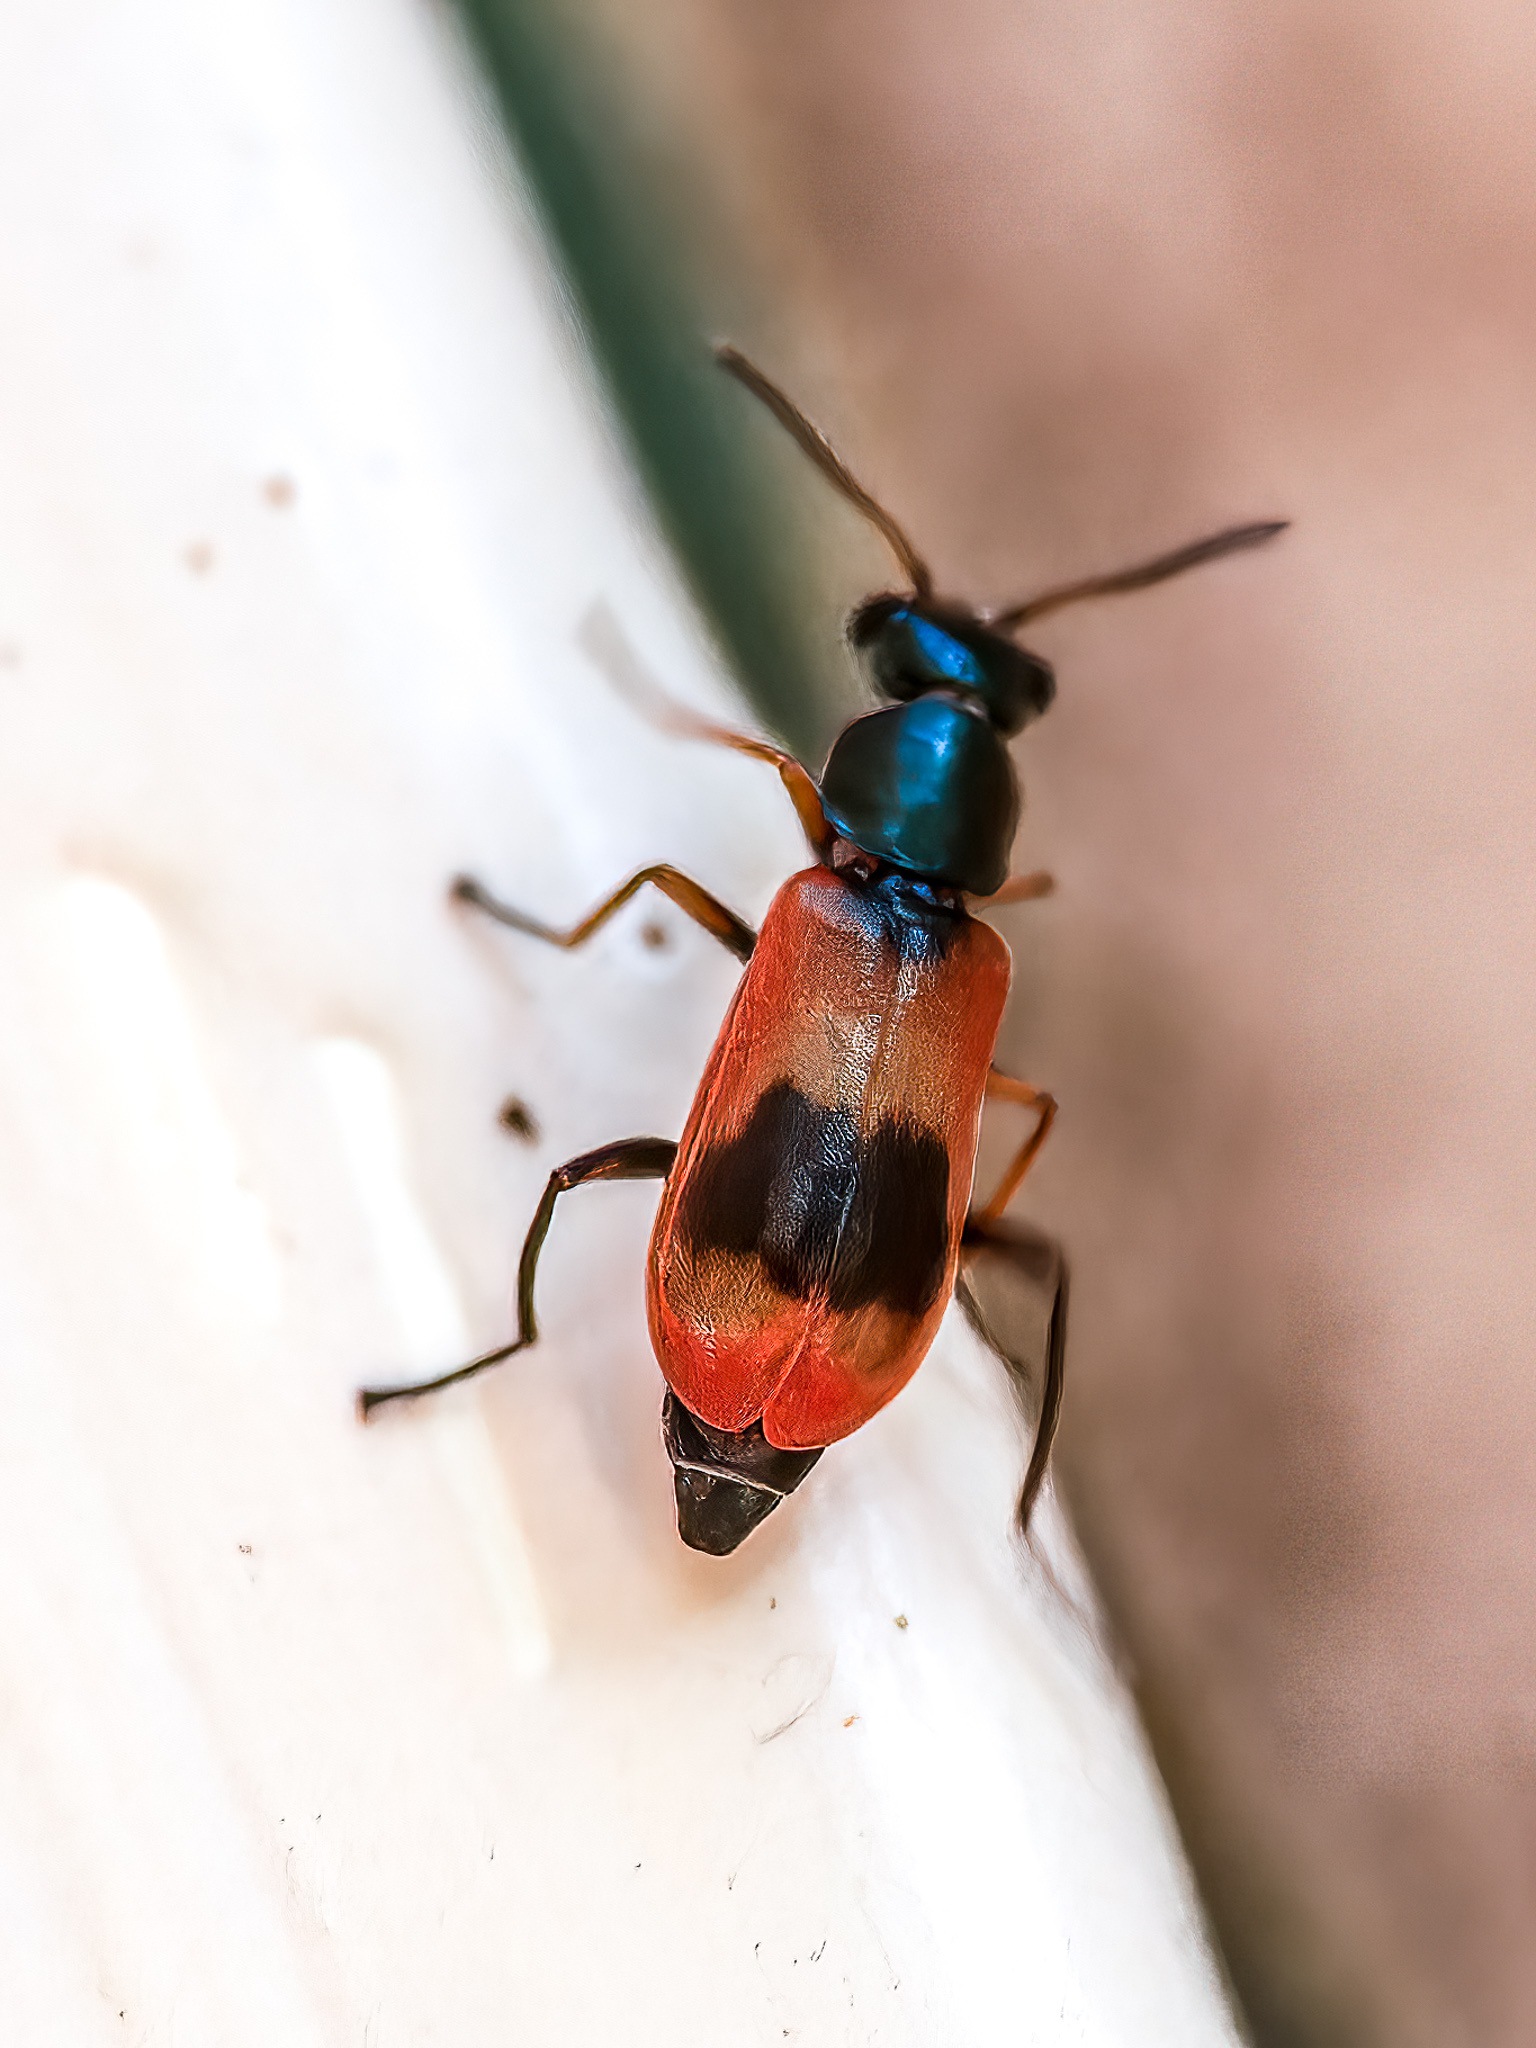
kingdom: Animalia
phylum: Arthropoda
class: Insecta
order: Coleoptera
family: Melyridae
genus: Anthocomus
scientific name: Anthocomus equestris
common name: Black-banded soft-winged flower beetle
